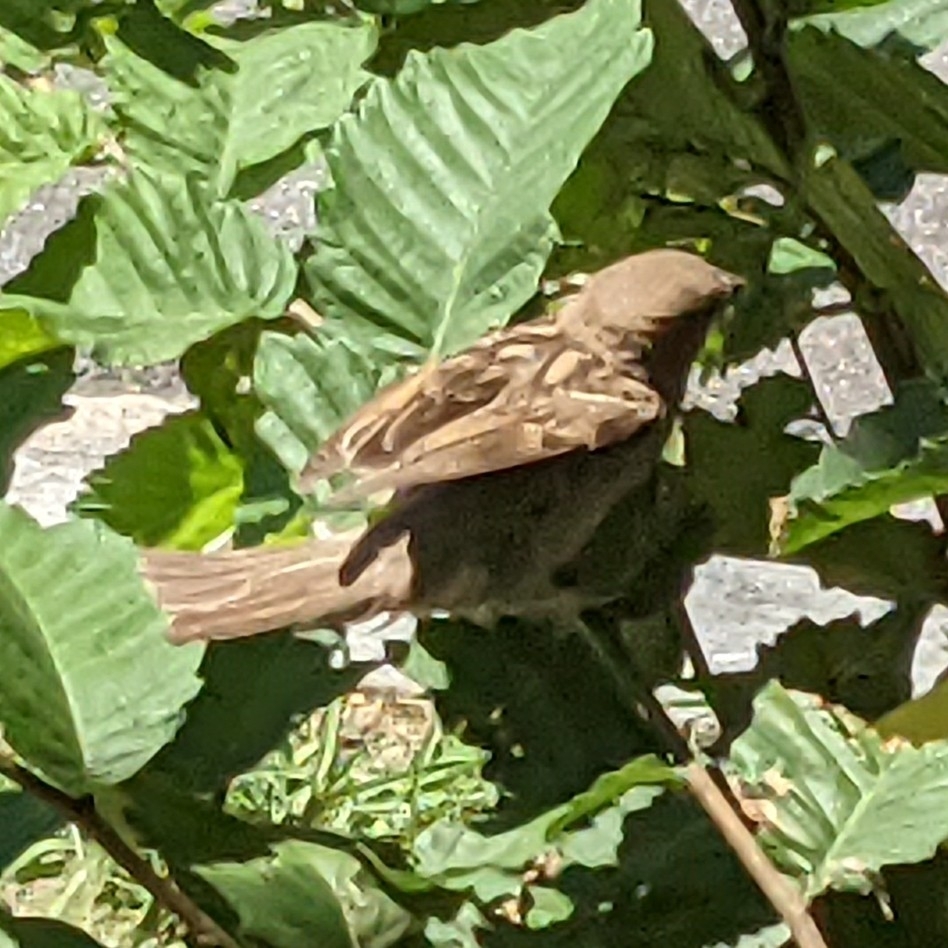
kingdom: Animalia
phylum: Chordata
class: Aves
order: Passeriformes
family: Passeridae
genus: Passer
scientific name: Passer domesticus
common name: House sparrow
